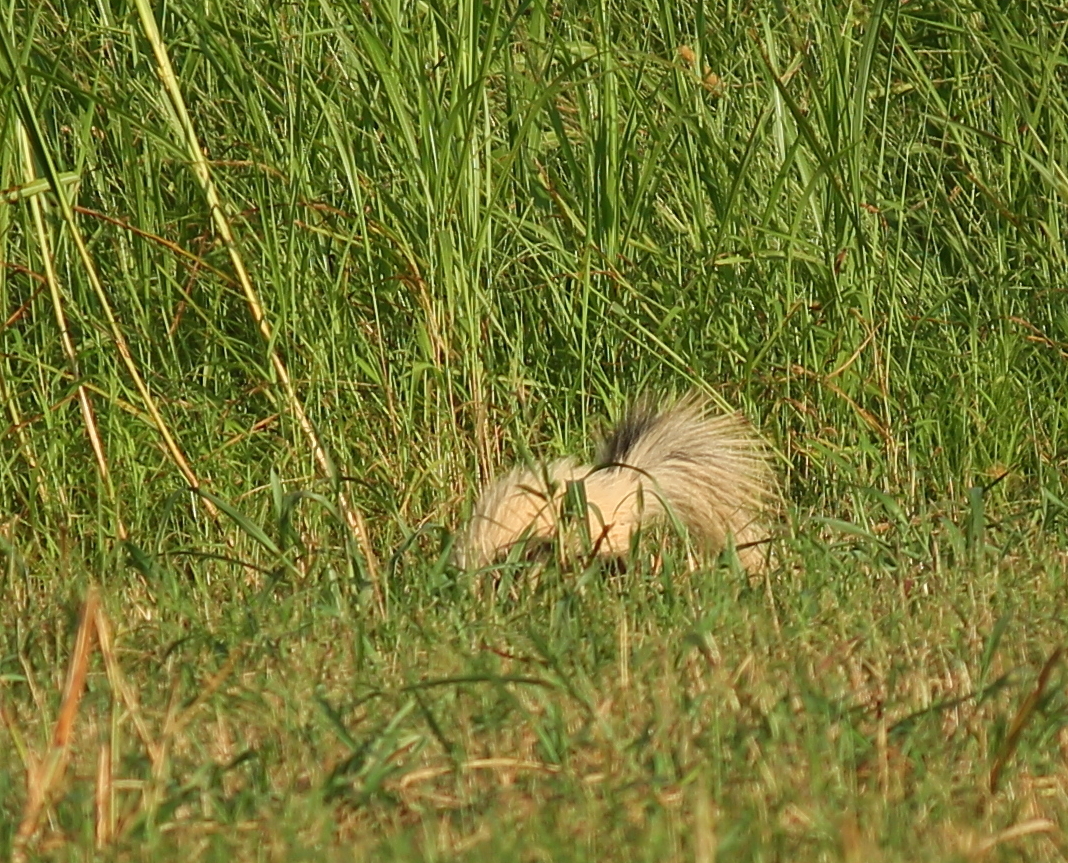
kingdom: Animalia
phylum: Chordata
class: Mammalia
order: Carnivora
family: Mephitidae
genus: Mephitis
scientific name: Mephitis mephitis
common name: Striped skunk
